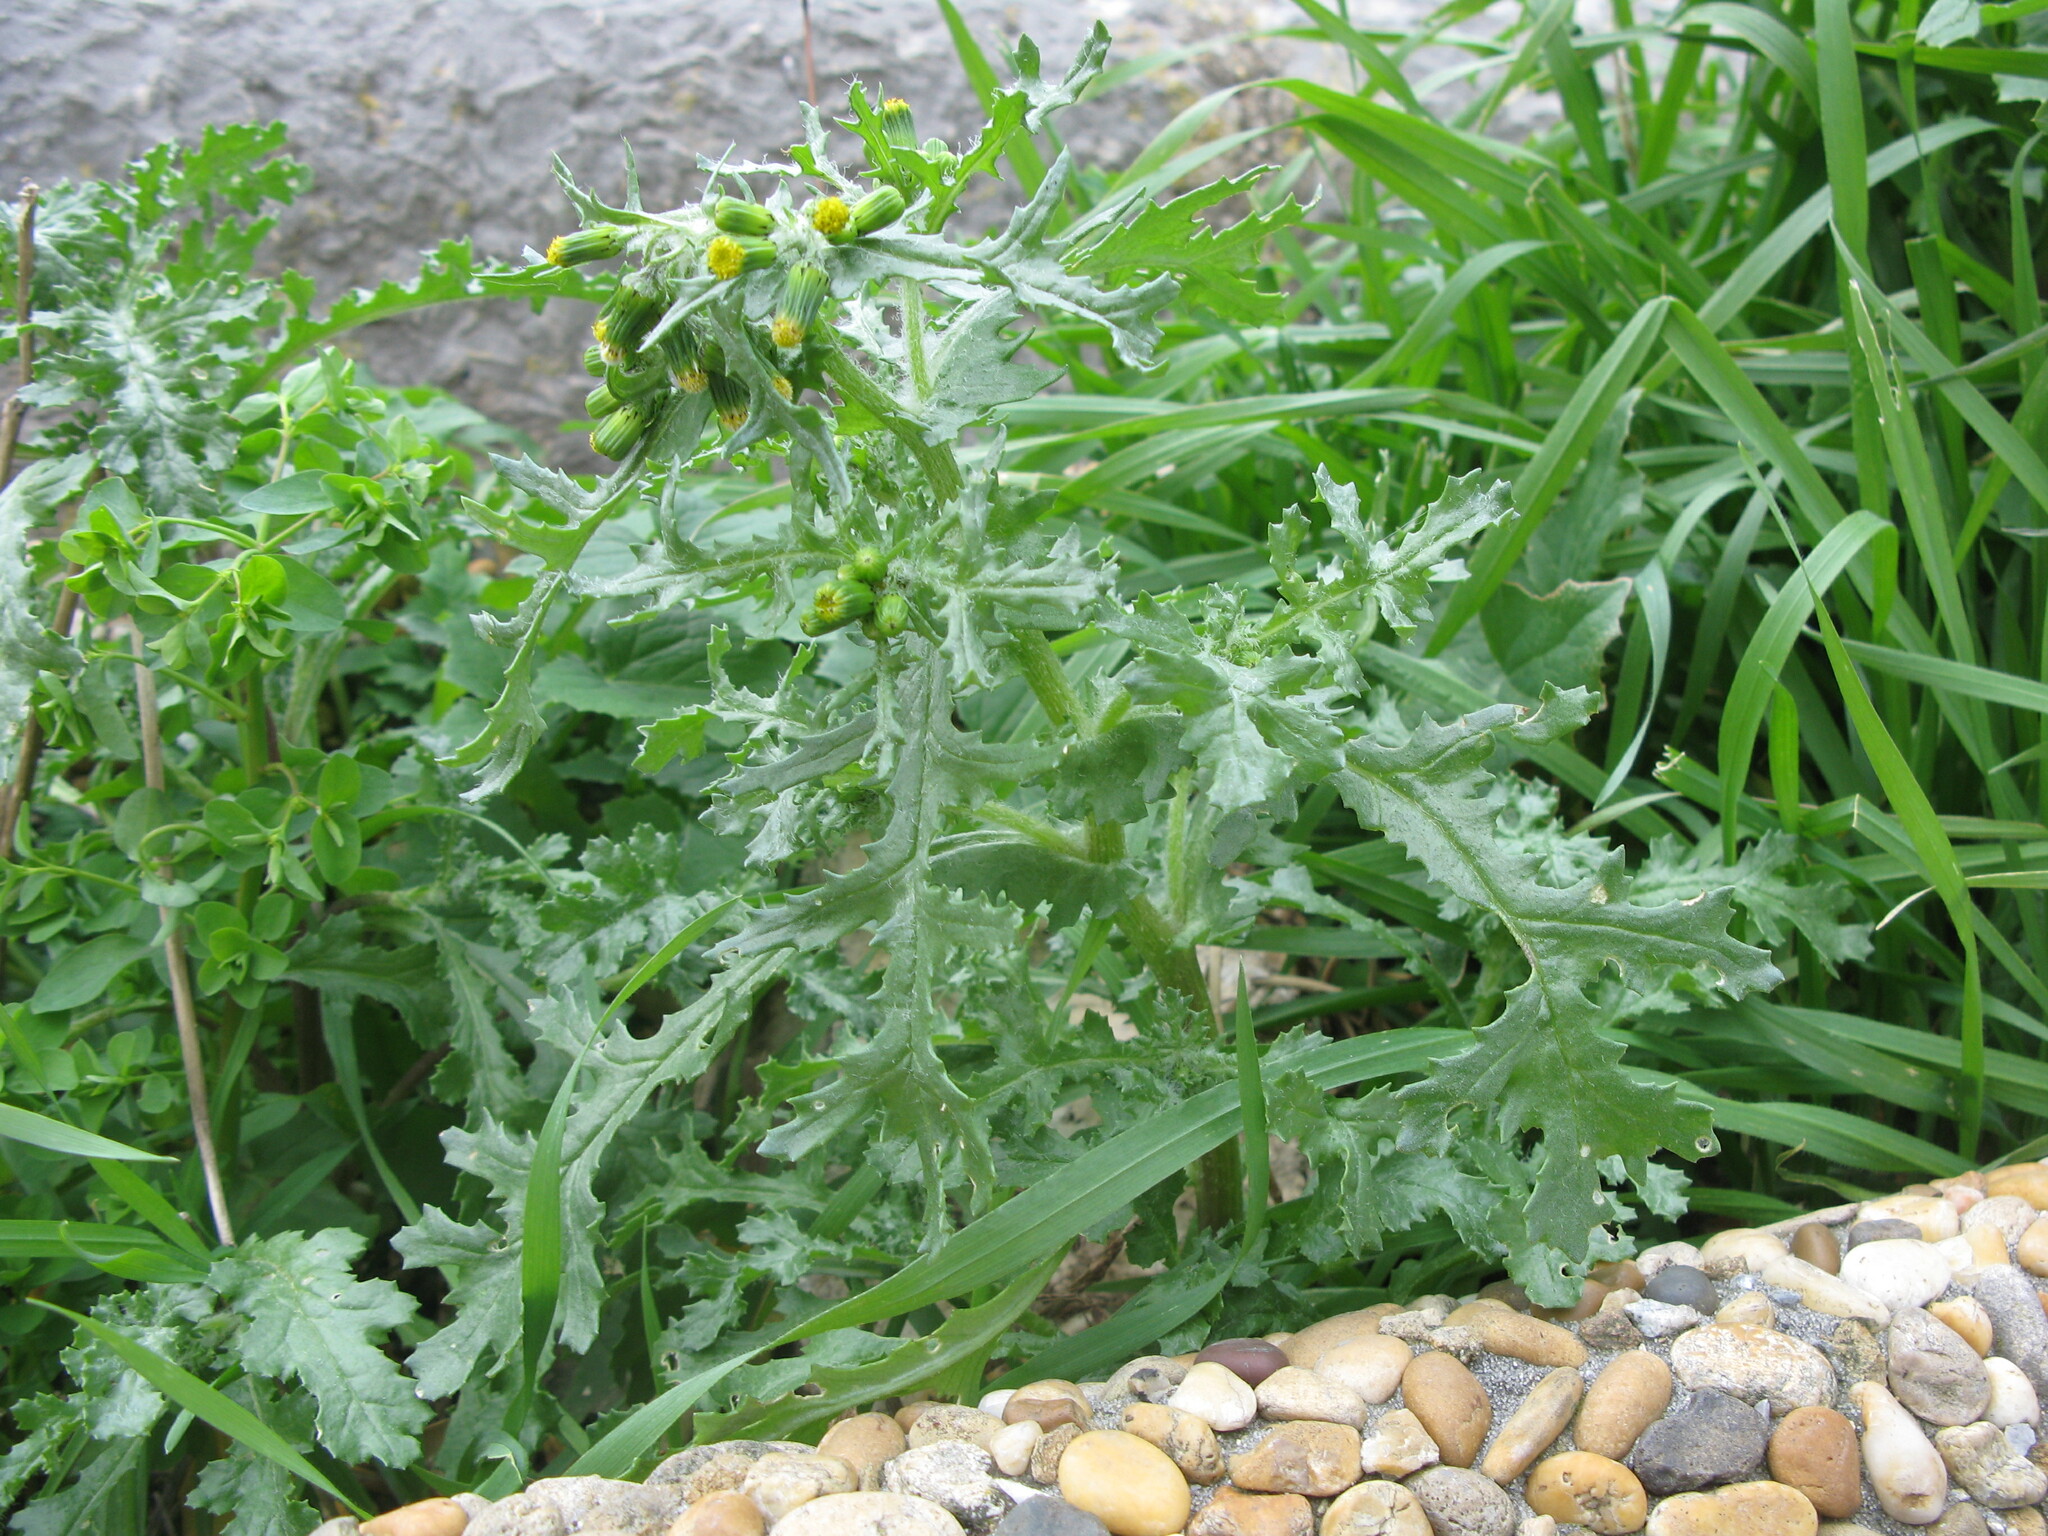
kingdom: Plantae
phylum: Tracheophyta
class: Magnoliopsida
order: Asterales
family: Asteraceae
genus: Senecio
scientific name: Senecio vulgaris
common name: Old-man-in-the-spring
